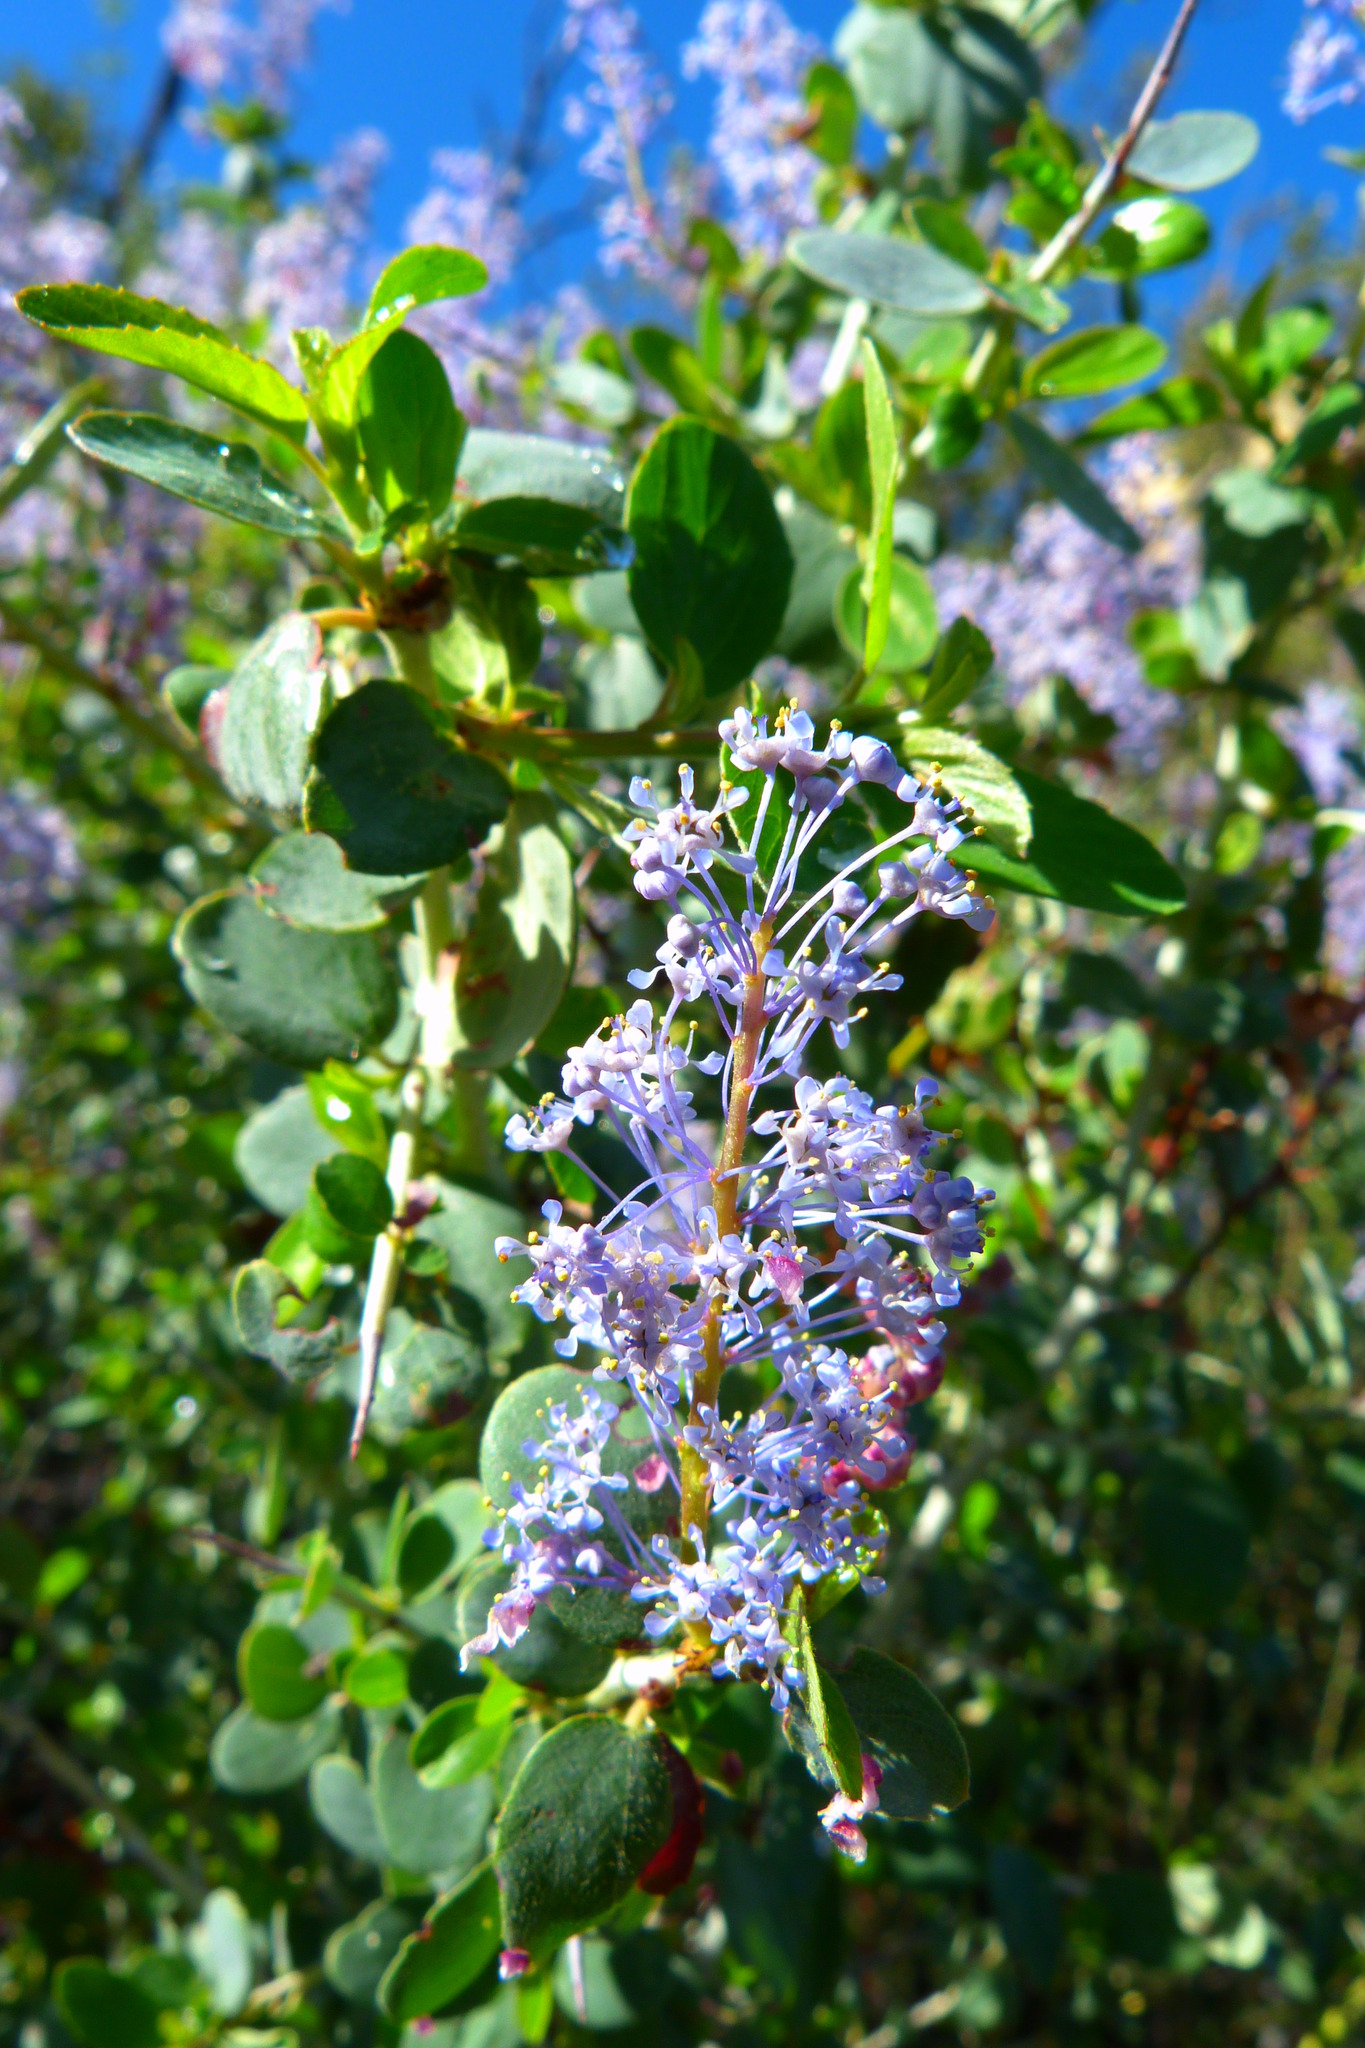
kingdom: Plantae
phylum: Tracheophyta
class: Magnoliopsida
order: Rosales
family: Rhamnaceae
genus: Ceanothus
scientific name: Ceanothus leucodermis
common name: Chaparral whitethorn
